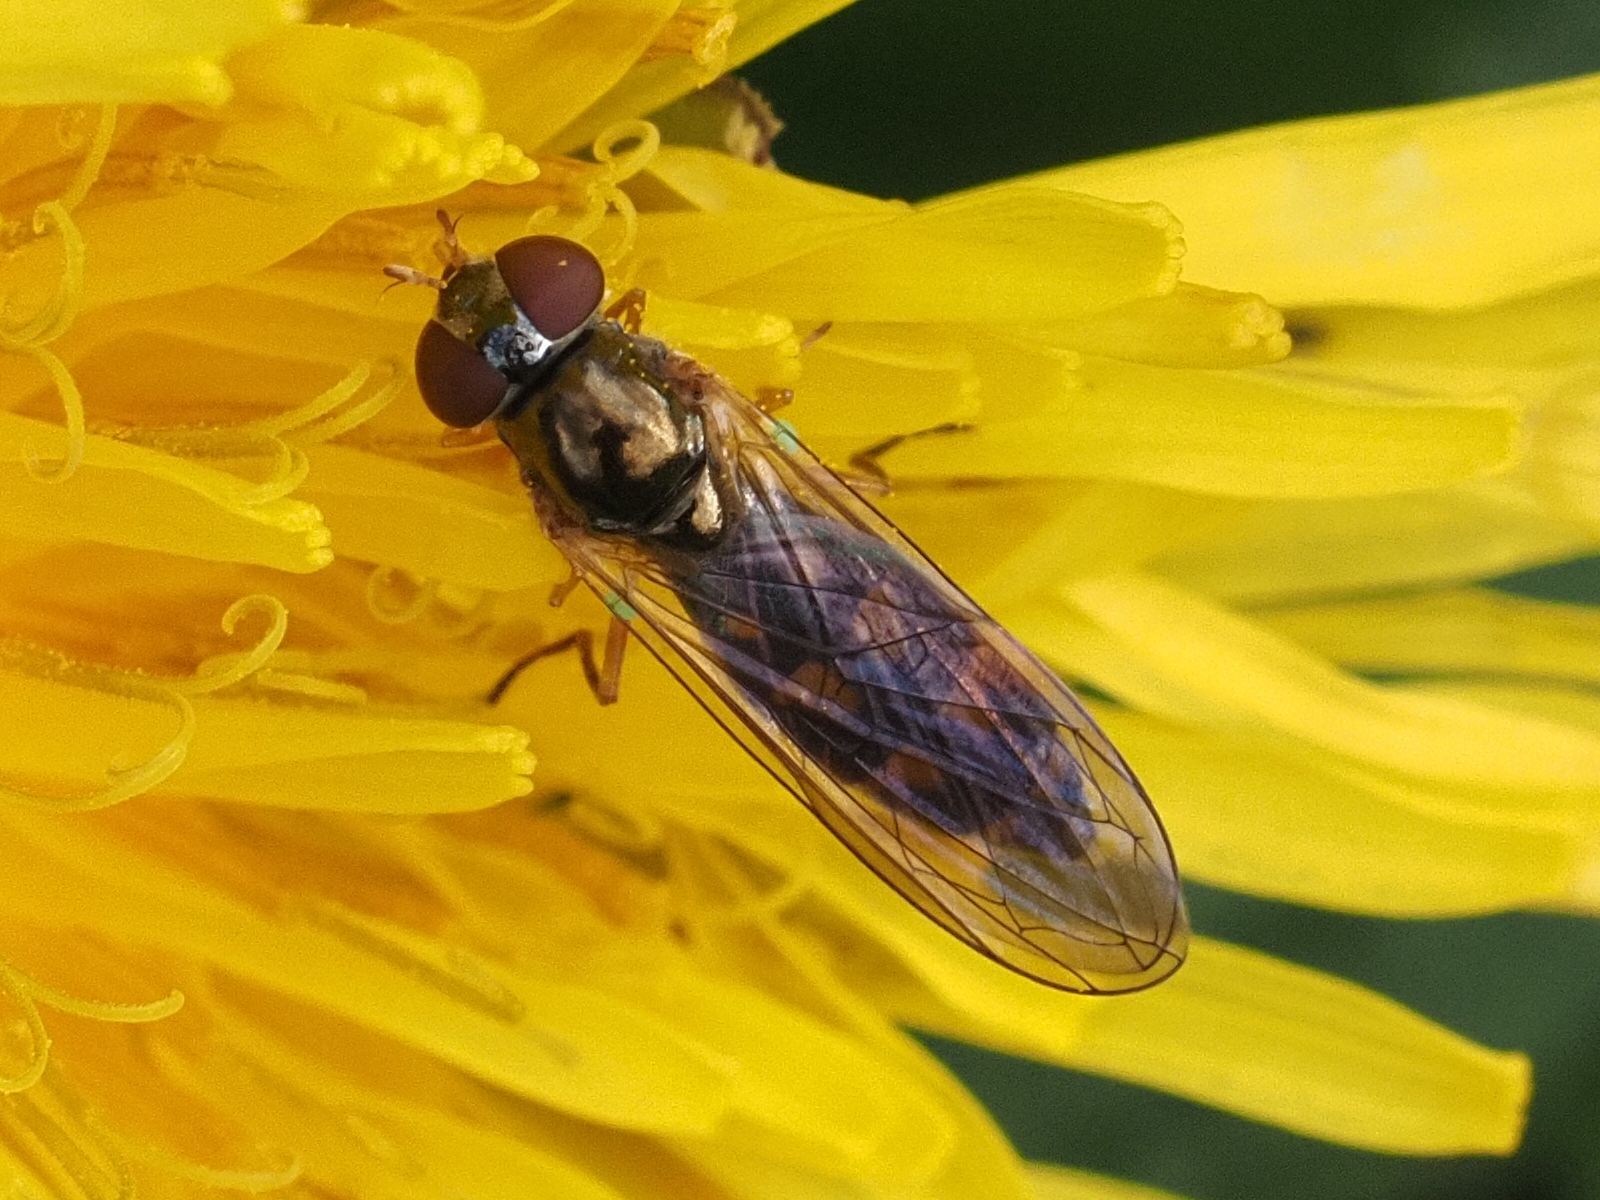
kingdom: Animalia
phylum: Arthropoda
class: Insecta
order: Diptera
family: Syrphidae
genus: Melanostoma
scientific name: Melanostoma scalare
